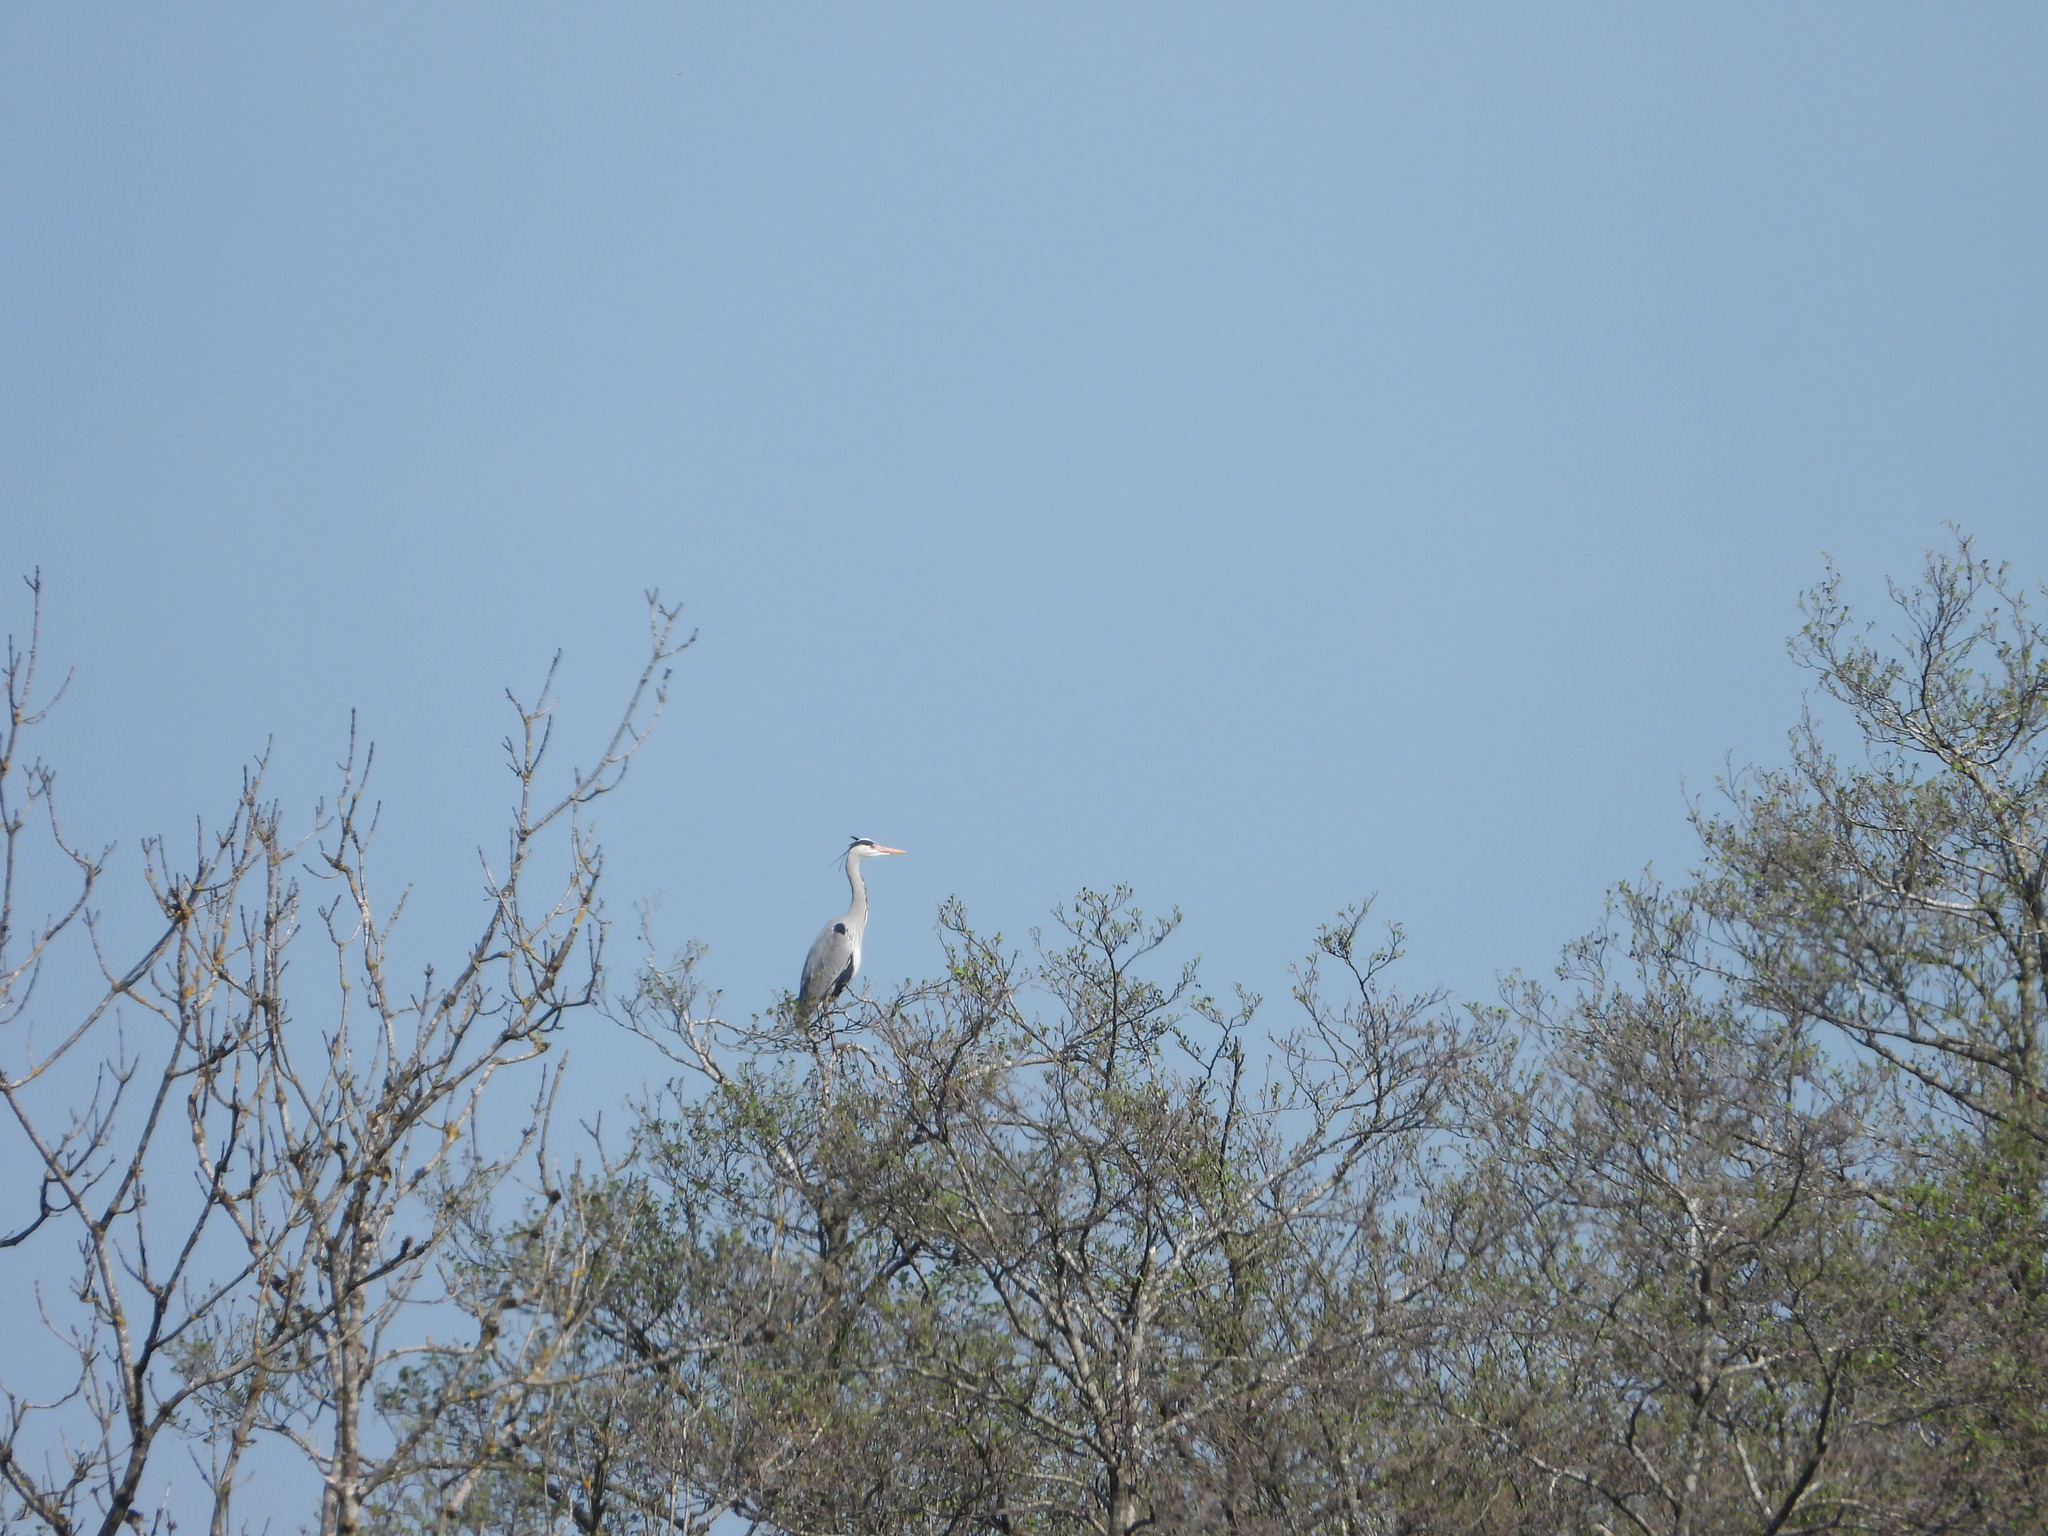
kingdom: Animalia
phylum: Chordata
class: Aves
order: Pelecaniformes
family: Ardeidae
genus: Ardea
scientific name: Ardea cinerea
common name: Grey heron
